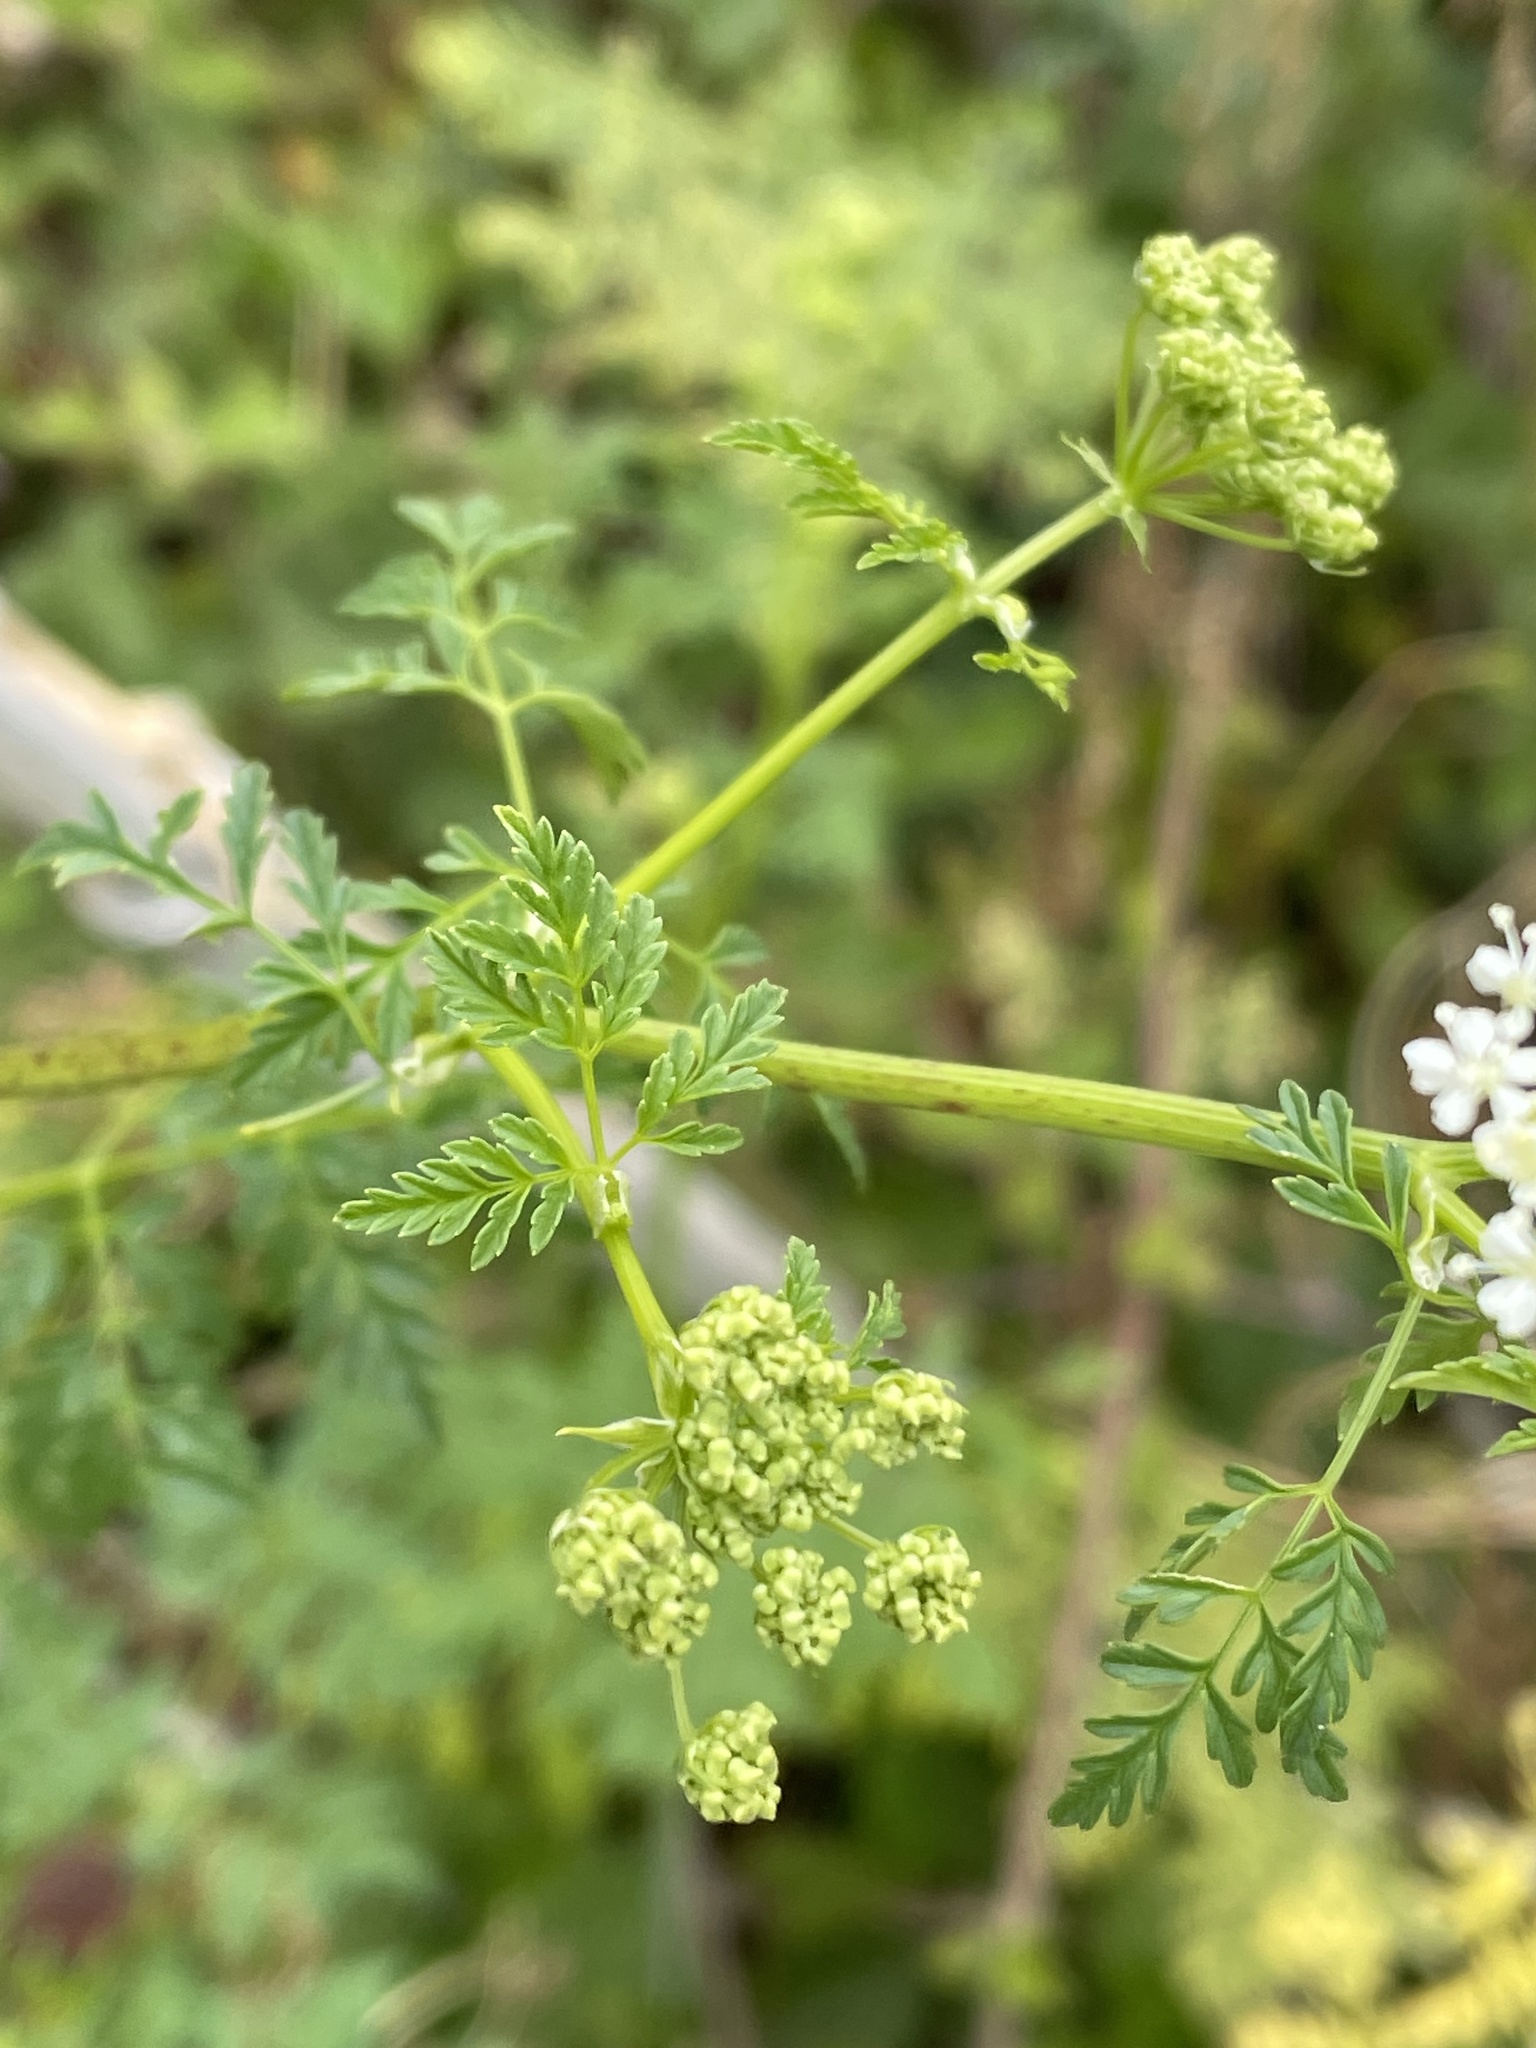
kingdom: Plantae
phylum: Tracheophyta
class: Magnoliopsida
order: Apiales
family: Apiaceae
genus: Conium
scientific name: Conium maculatum
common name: Hemlock
